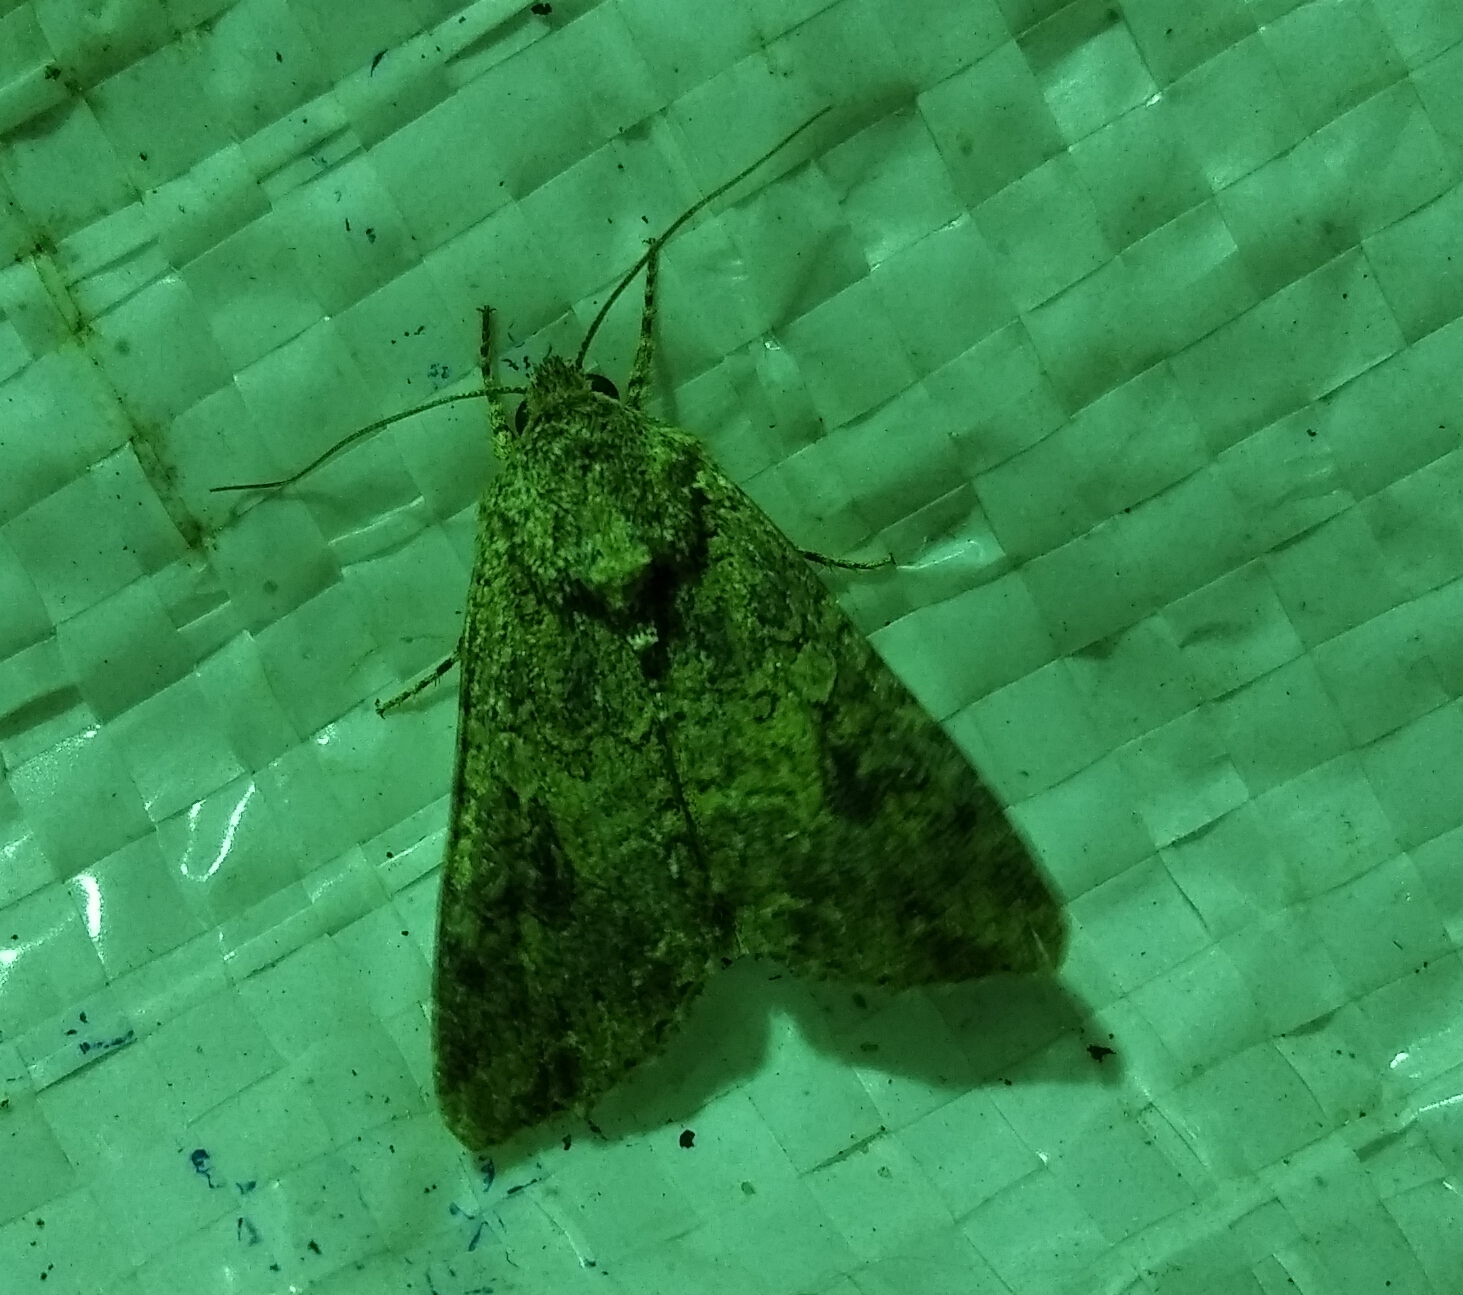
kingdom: Animalia
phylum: Arthropoda
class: Insecta
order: Lepidoptera
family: Noctuidae
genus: Anarta
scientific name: Anarta trifolii
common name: Clover cutworm moth
